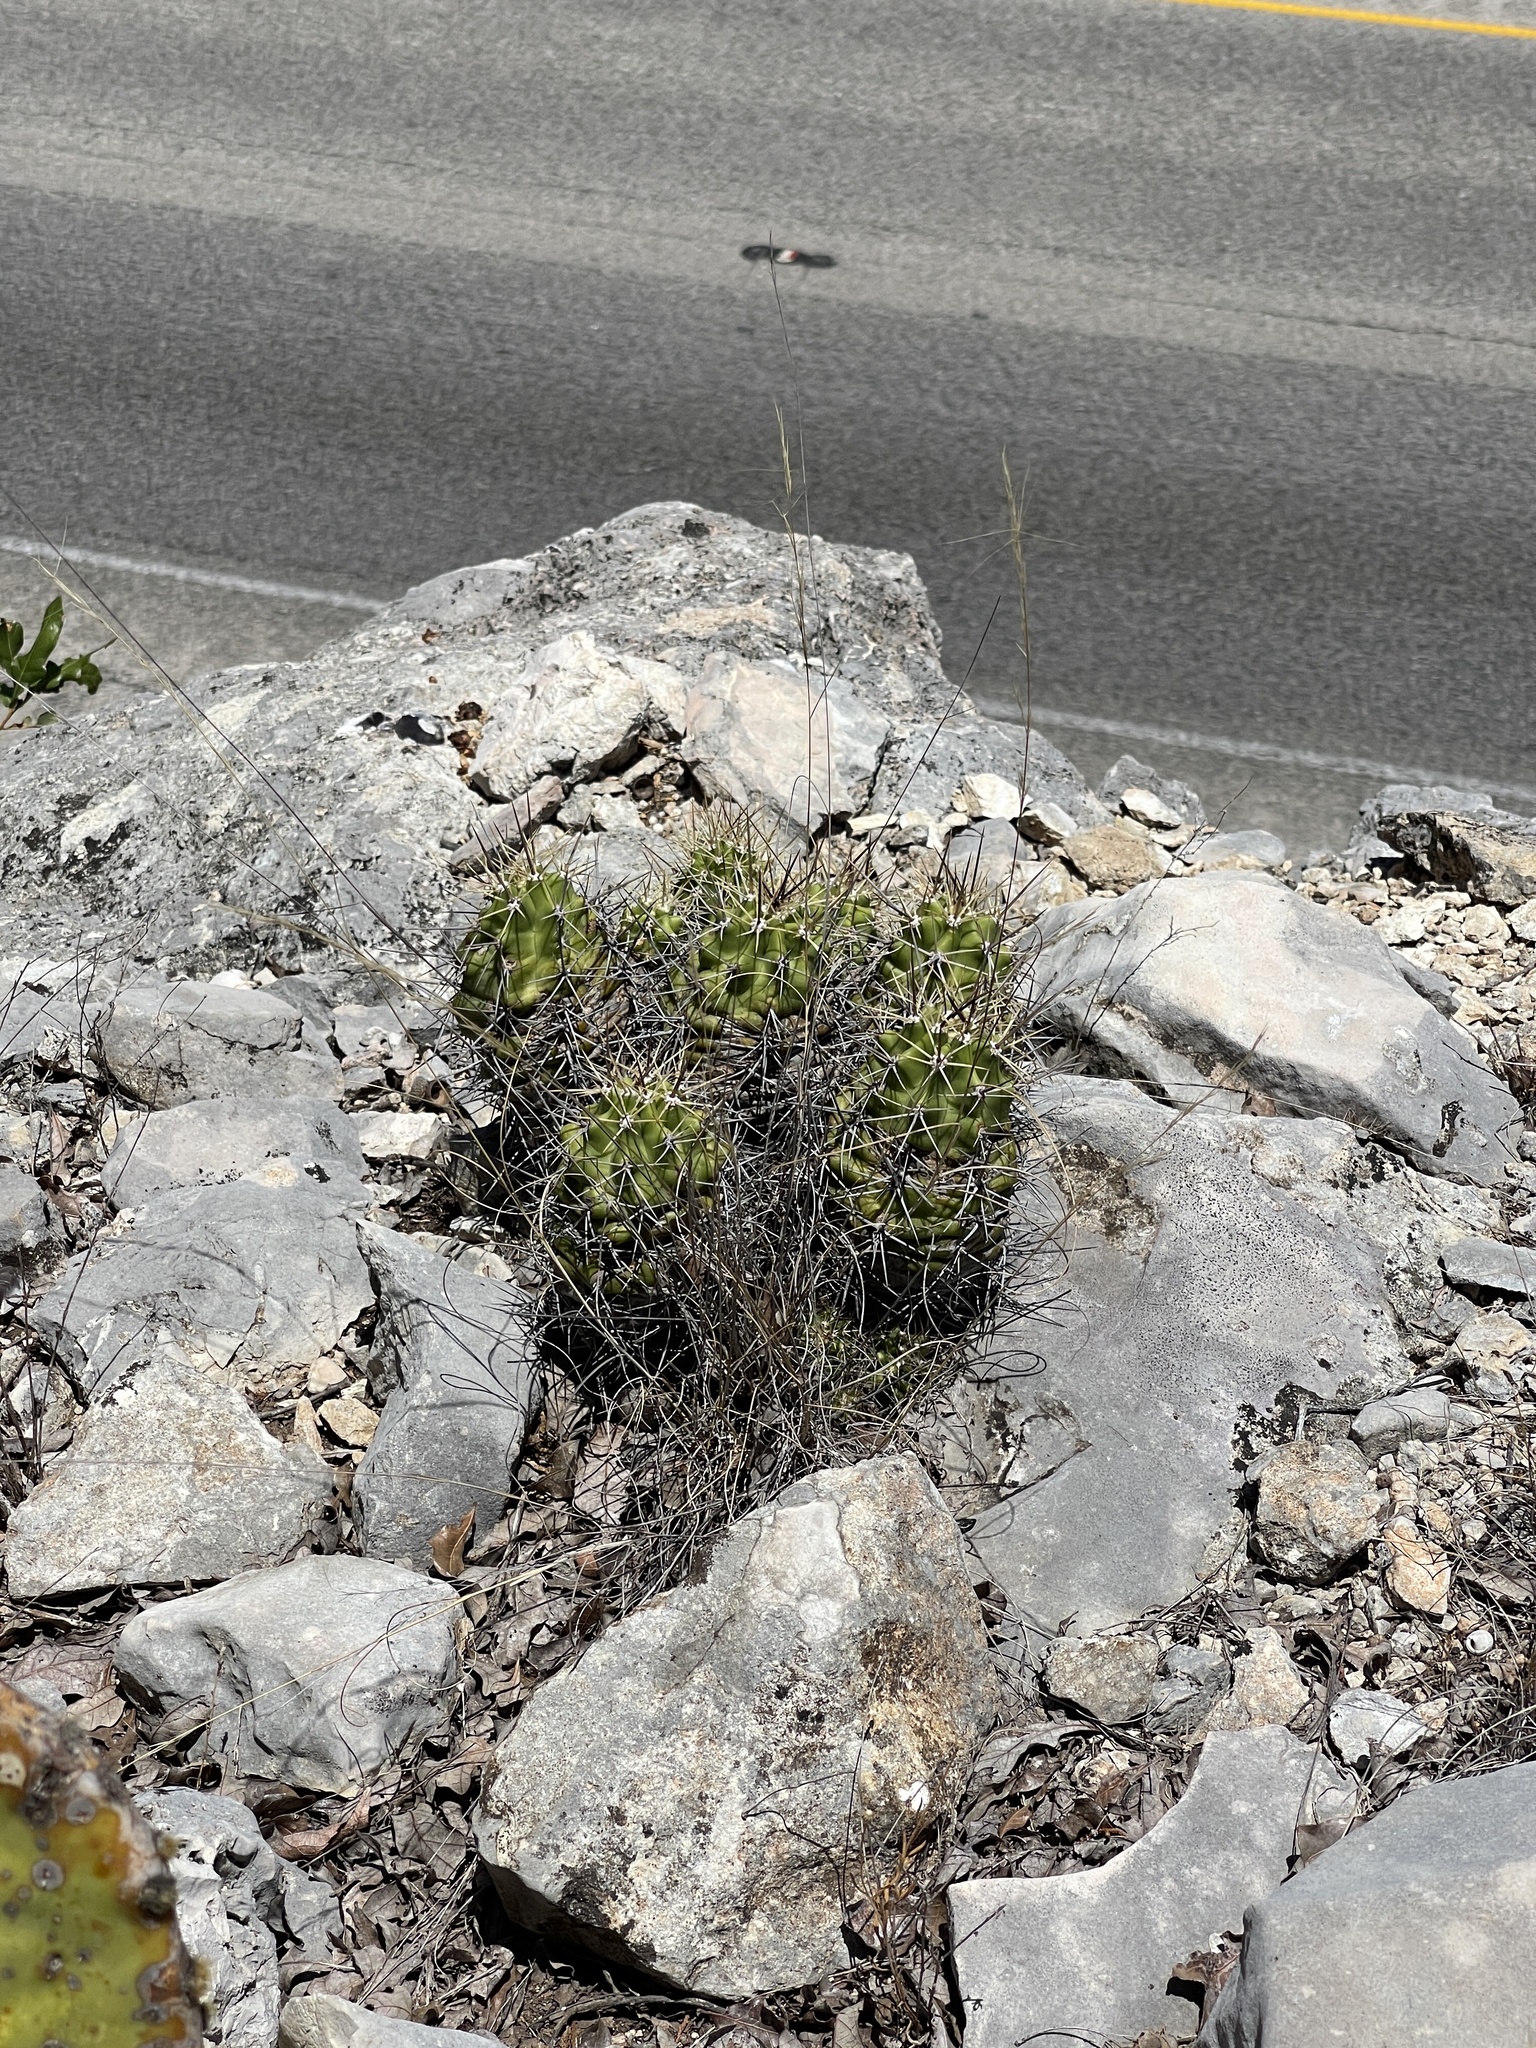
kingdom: Plantae
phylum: Tracheophyta
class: Magnoliopsida
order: Caryophyllales
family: Cactaceae
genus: Echinocereus
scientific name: Echinocereus coccineus
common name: Scarlet hedgehog cactus
